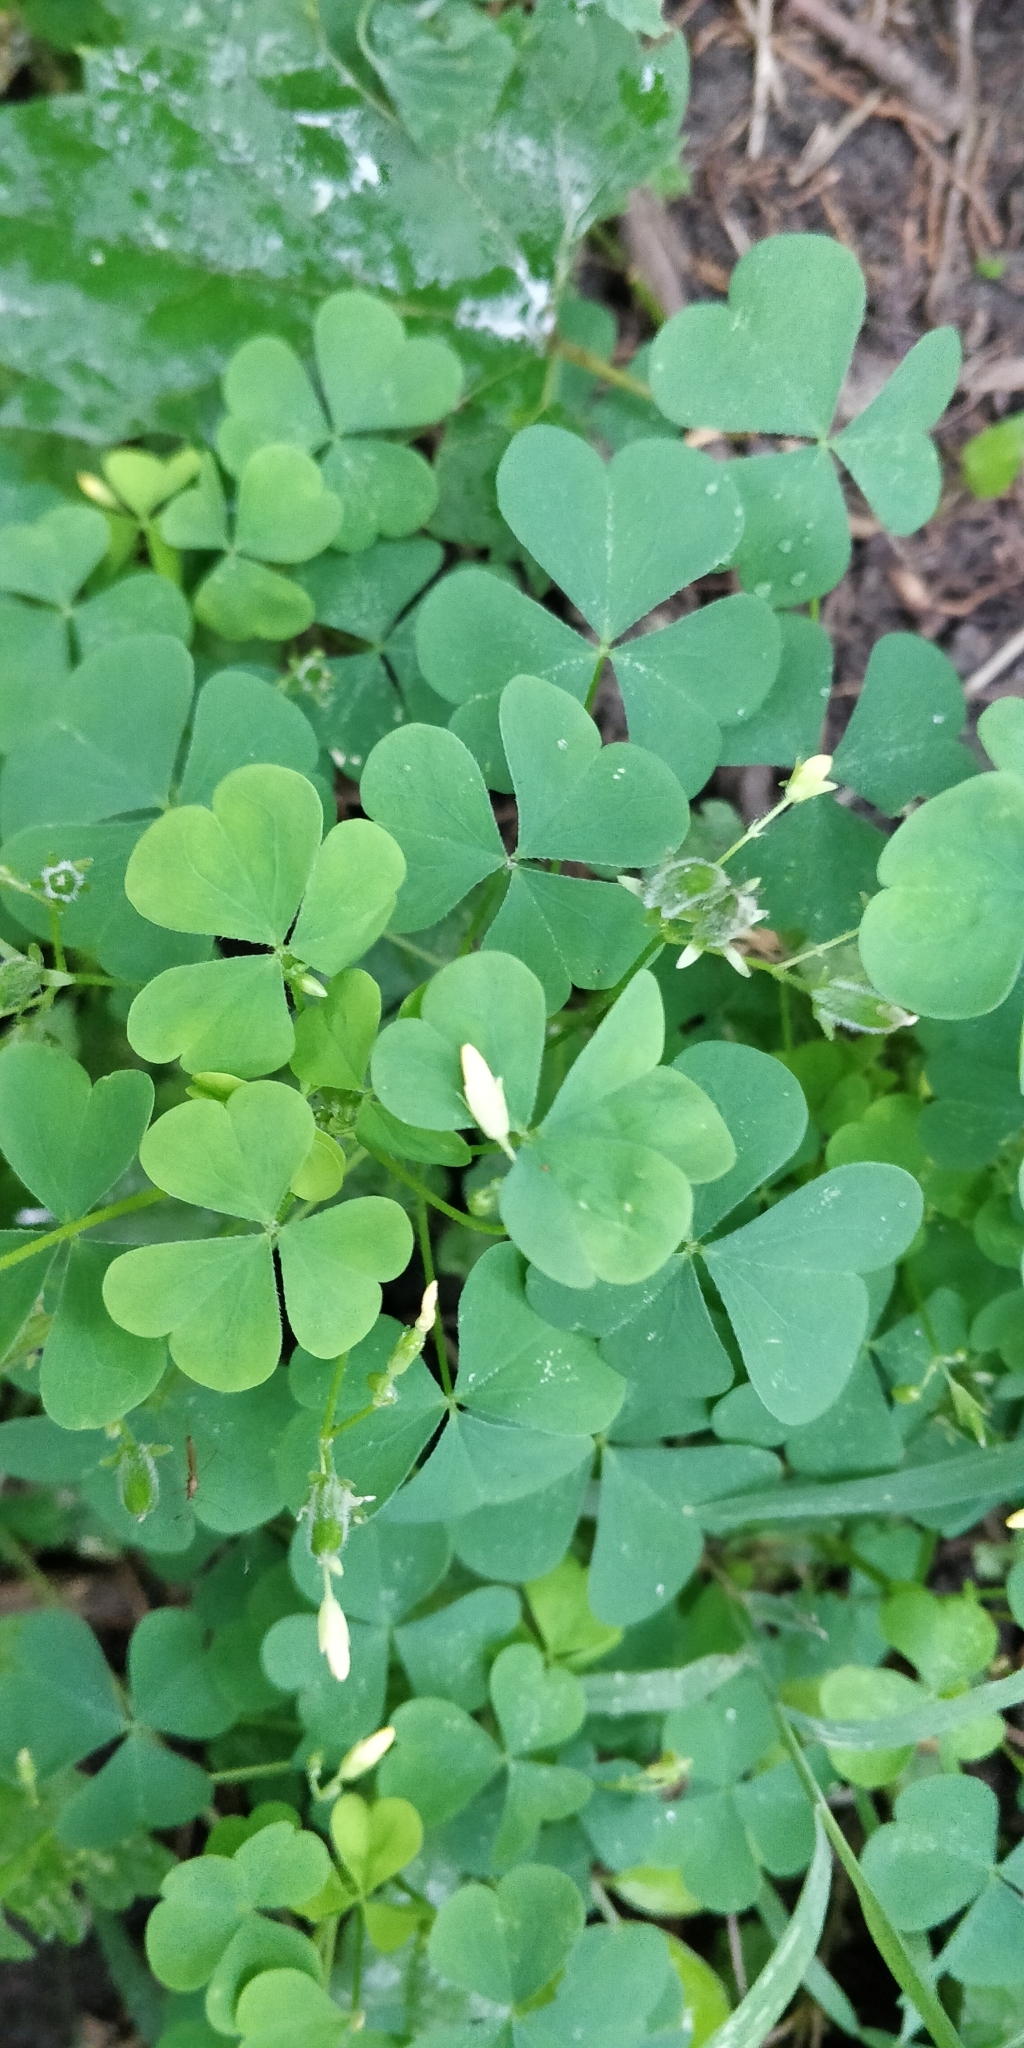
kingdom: Plantae
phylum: Tracheophyta
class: Magnoliopsida
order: Oxalidales
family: Oxalidaceae
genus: Oxalis
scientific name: Oxalis stricta
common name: Upright yellow-sorrel
